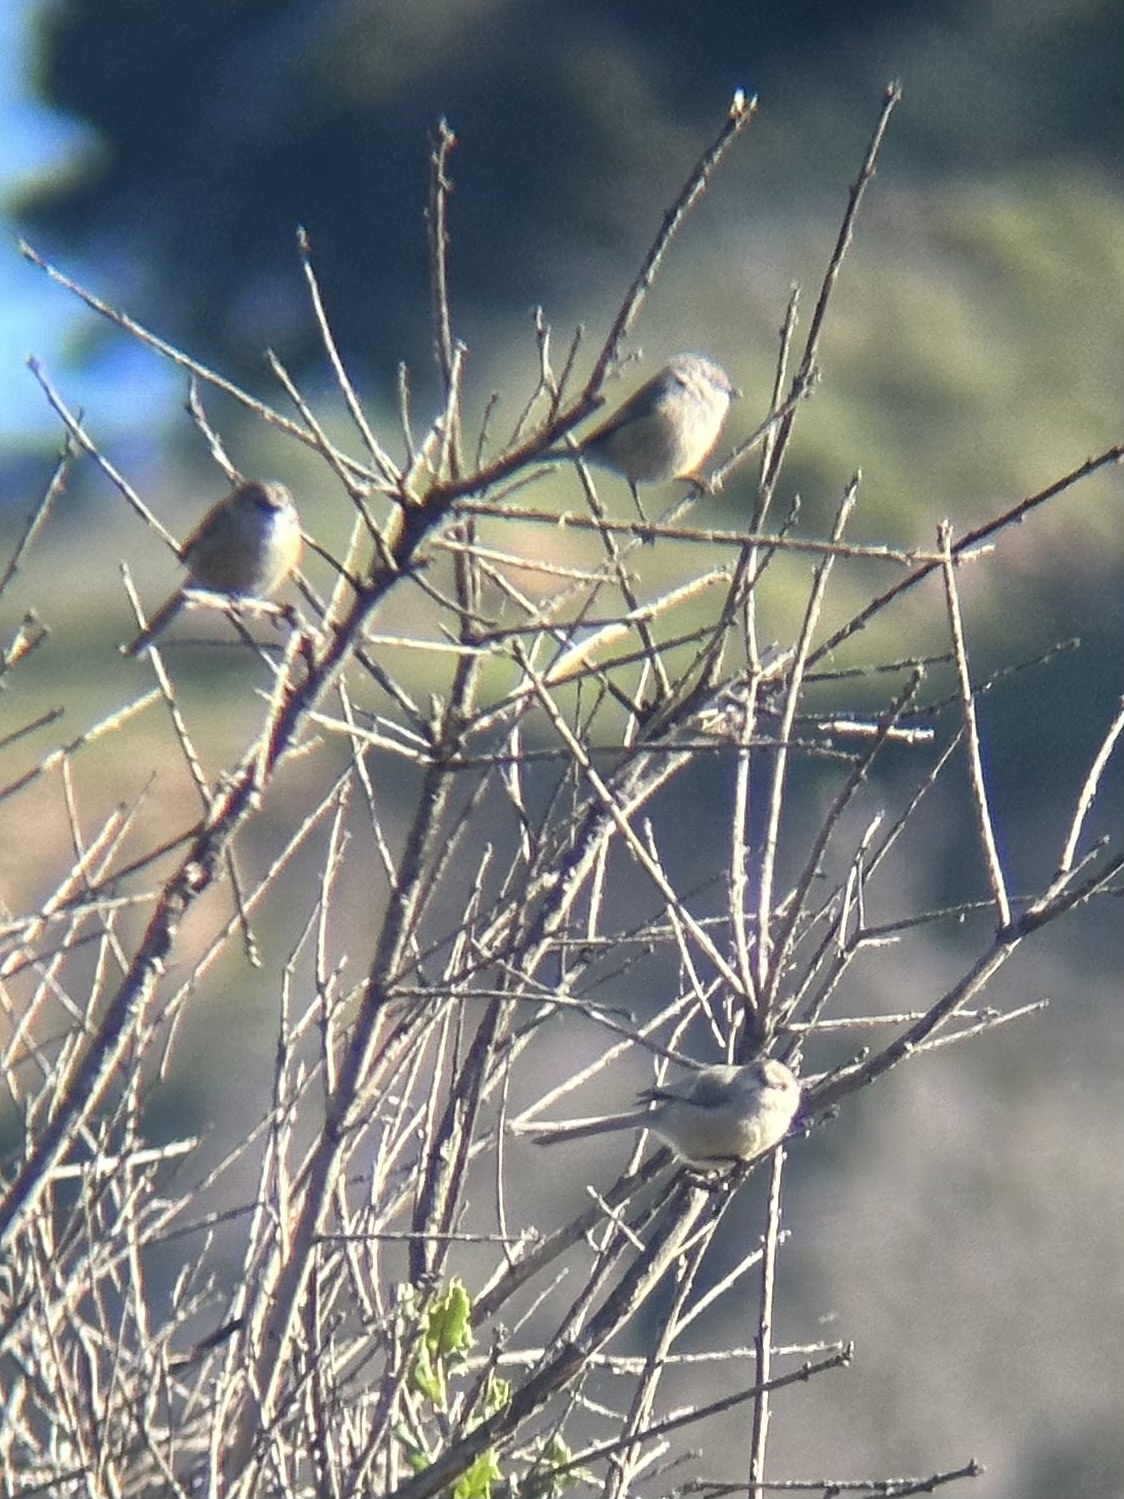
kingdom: Animalia
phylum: Chordata
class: Aves
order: Passeriformes
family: Aegithalidae
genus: Psaltriparus
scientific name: Psaltriparus minimus
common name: American bushtit
